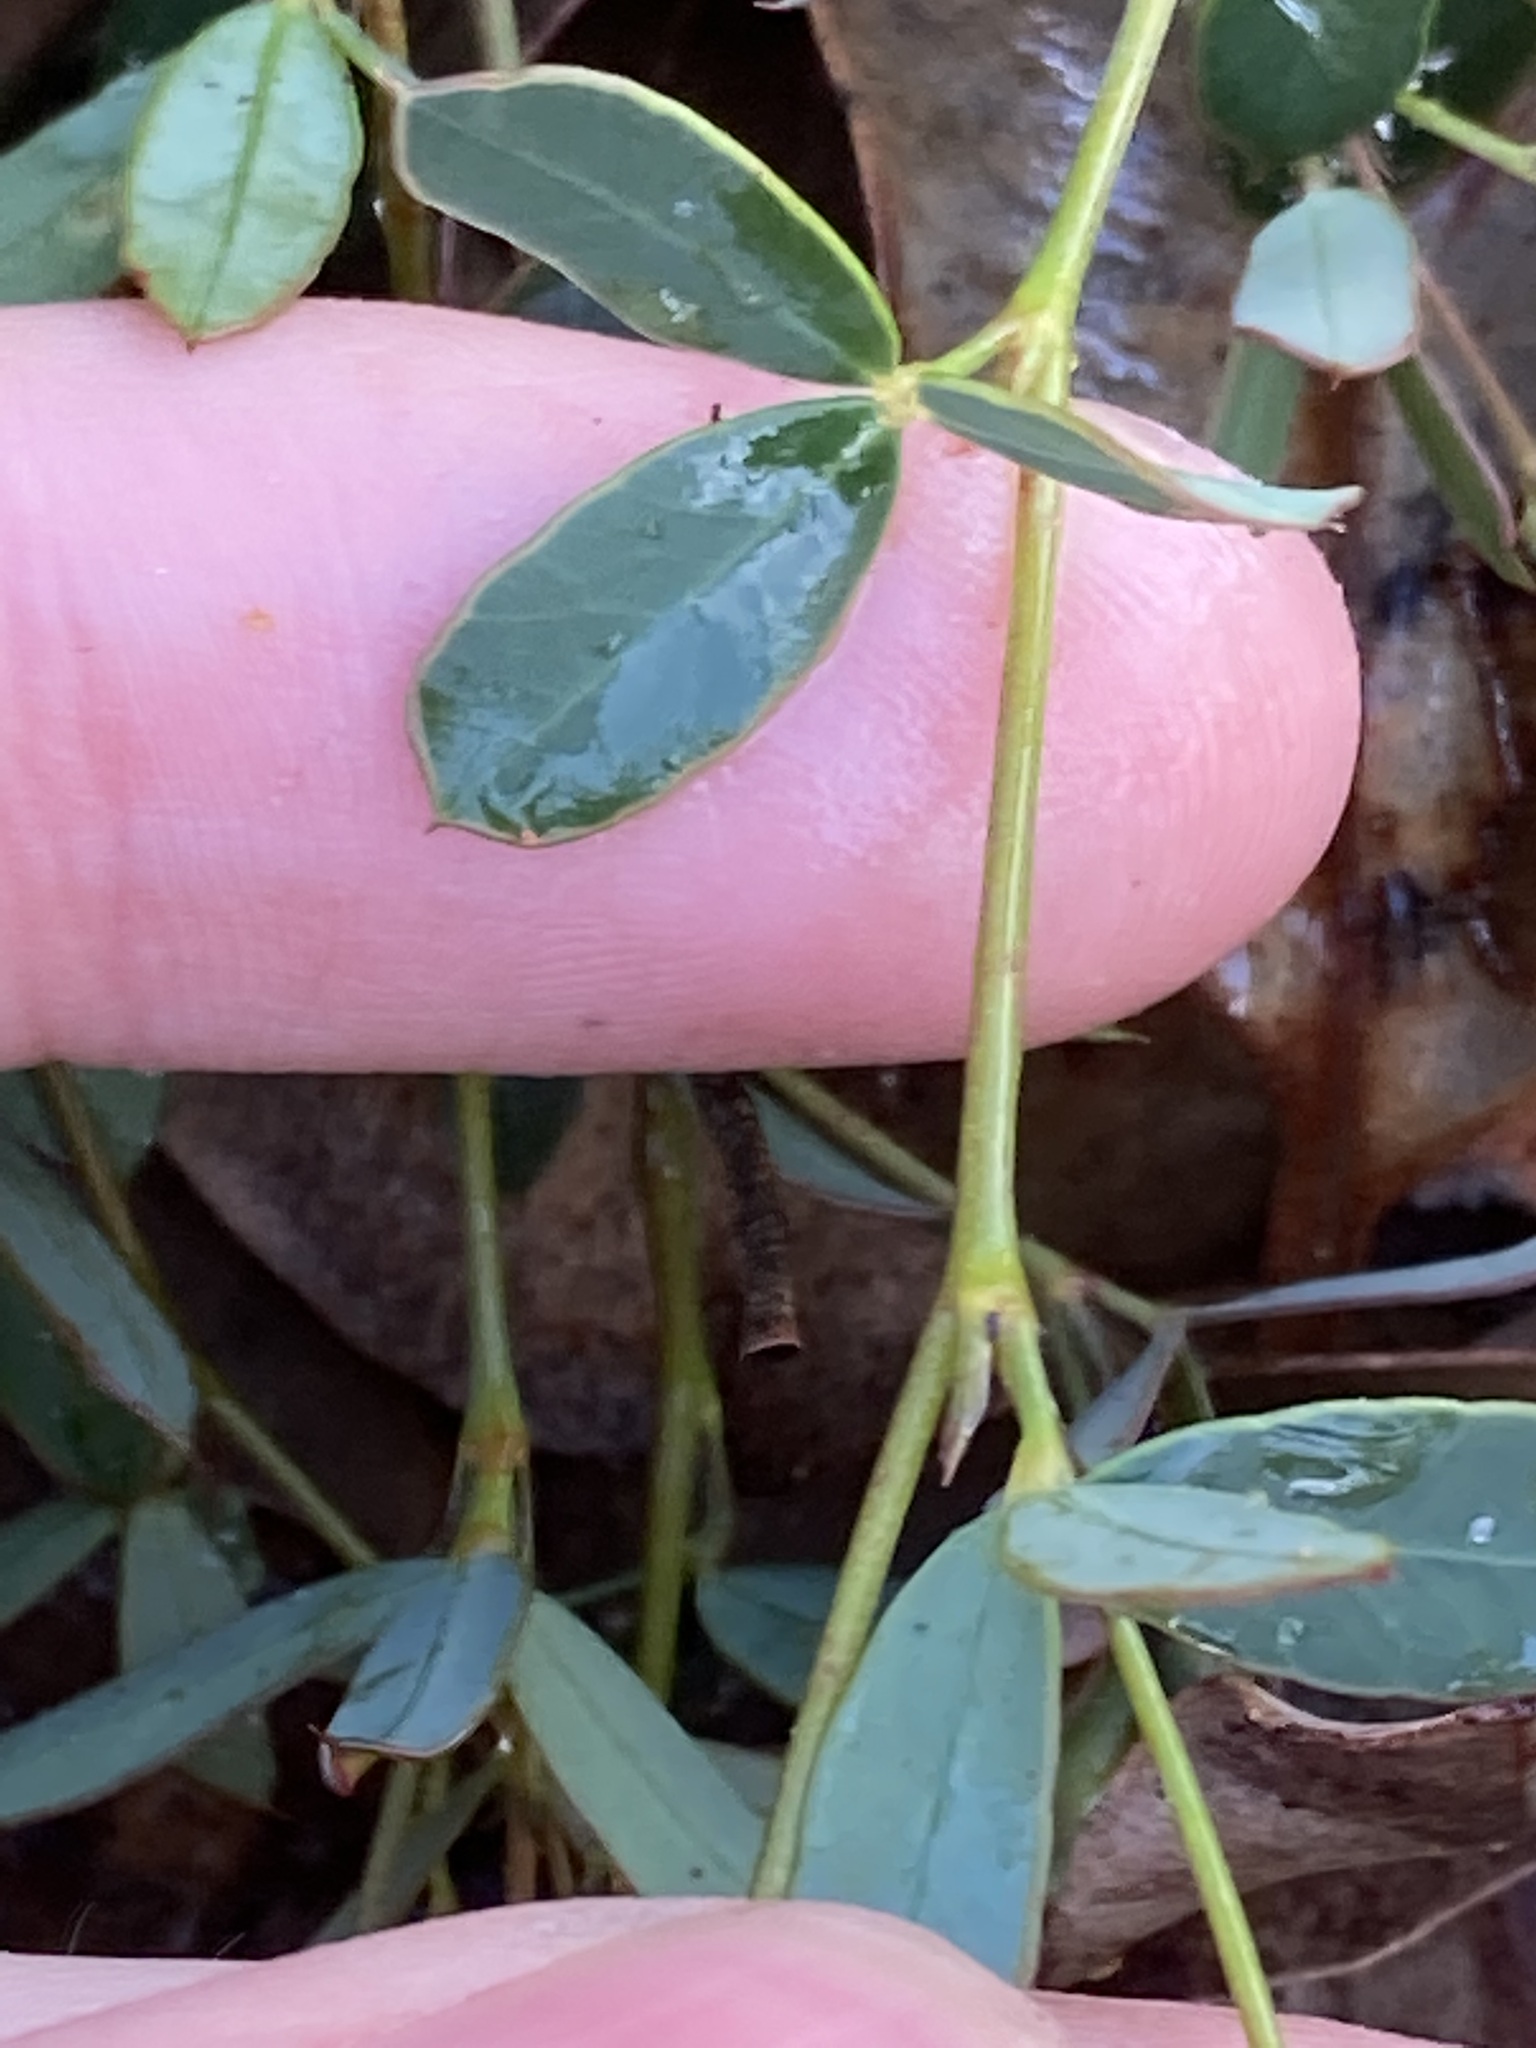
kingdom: Plantae
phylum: Tracheophyta
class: Magnoliopsida
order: Fabales
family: Fabaceae
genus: Gompholobium
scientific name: Gompholobium marginatum
